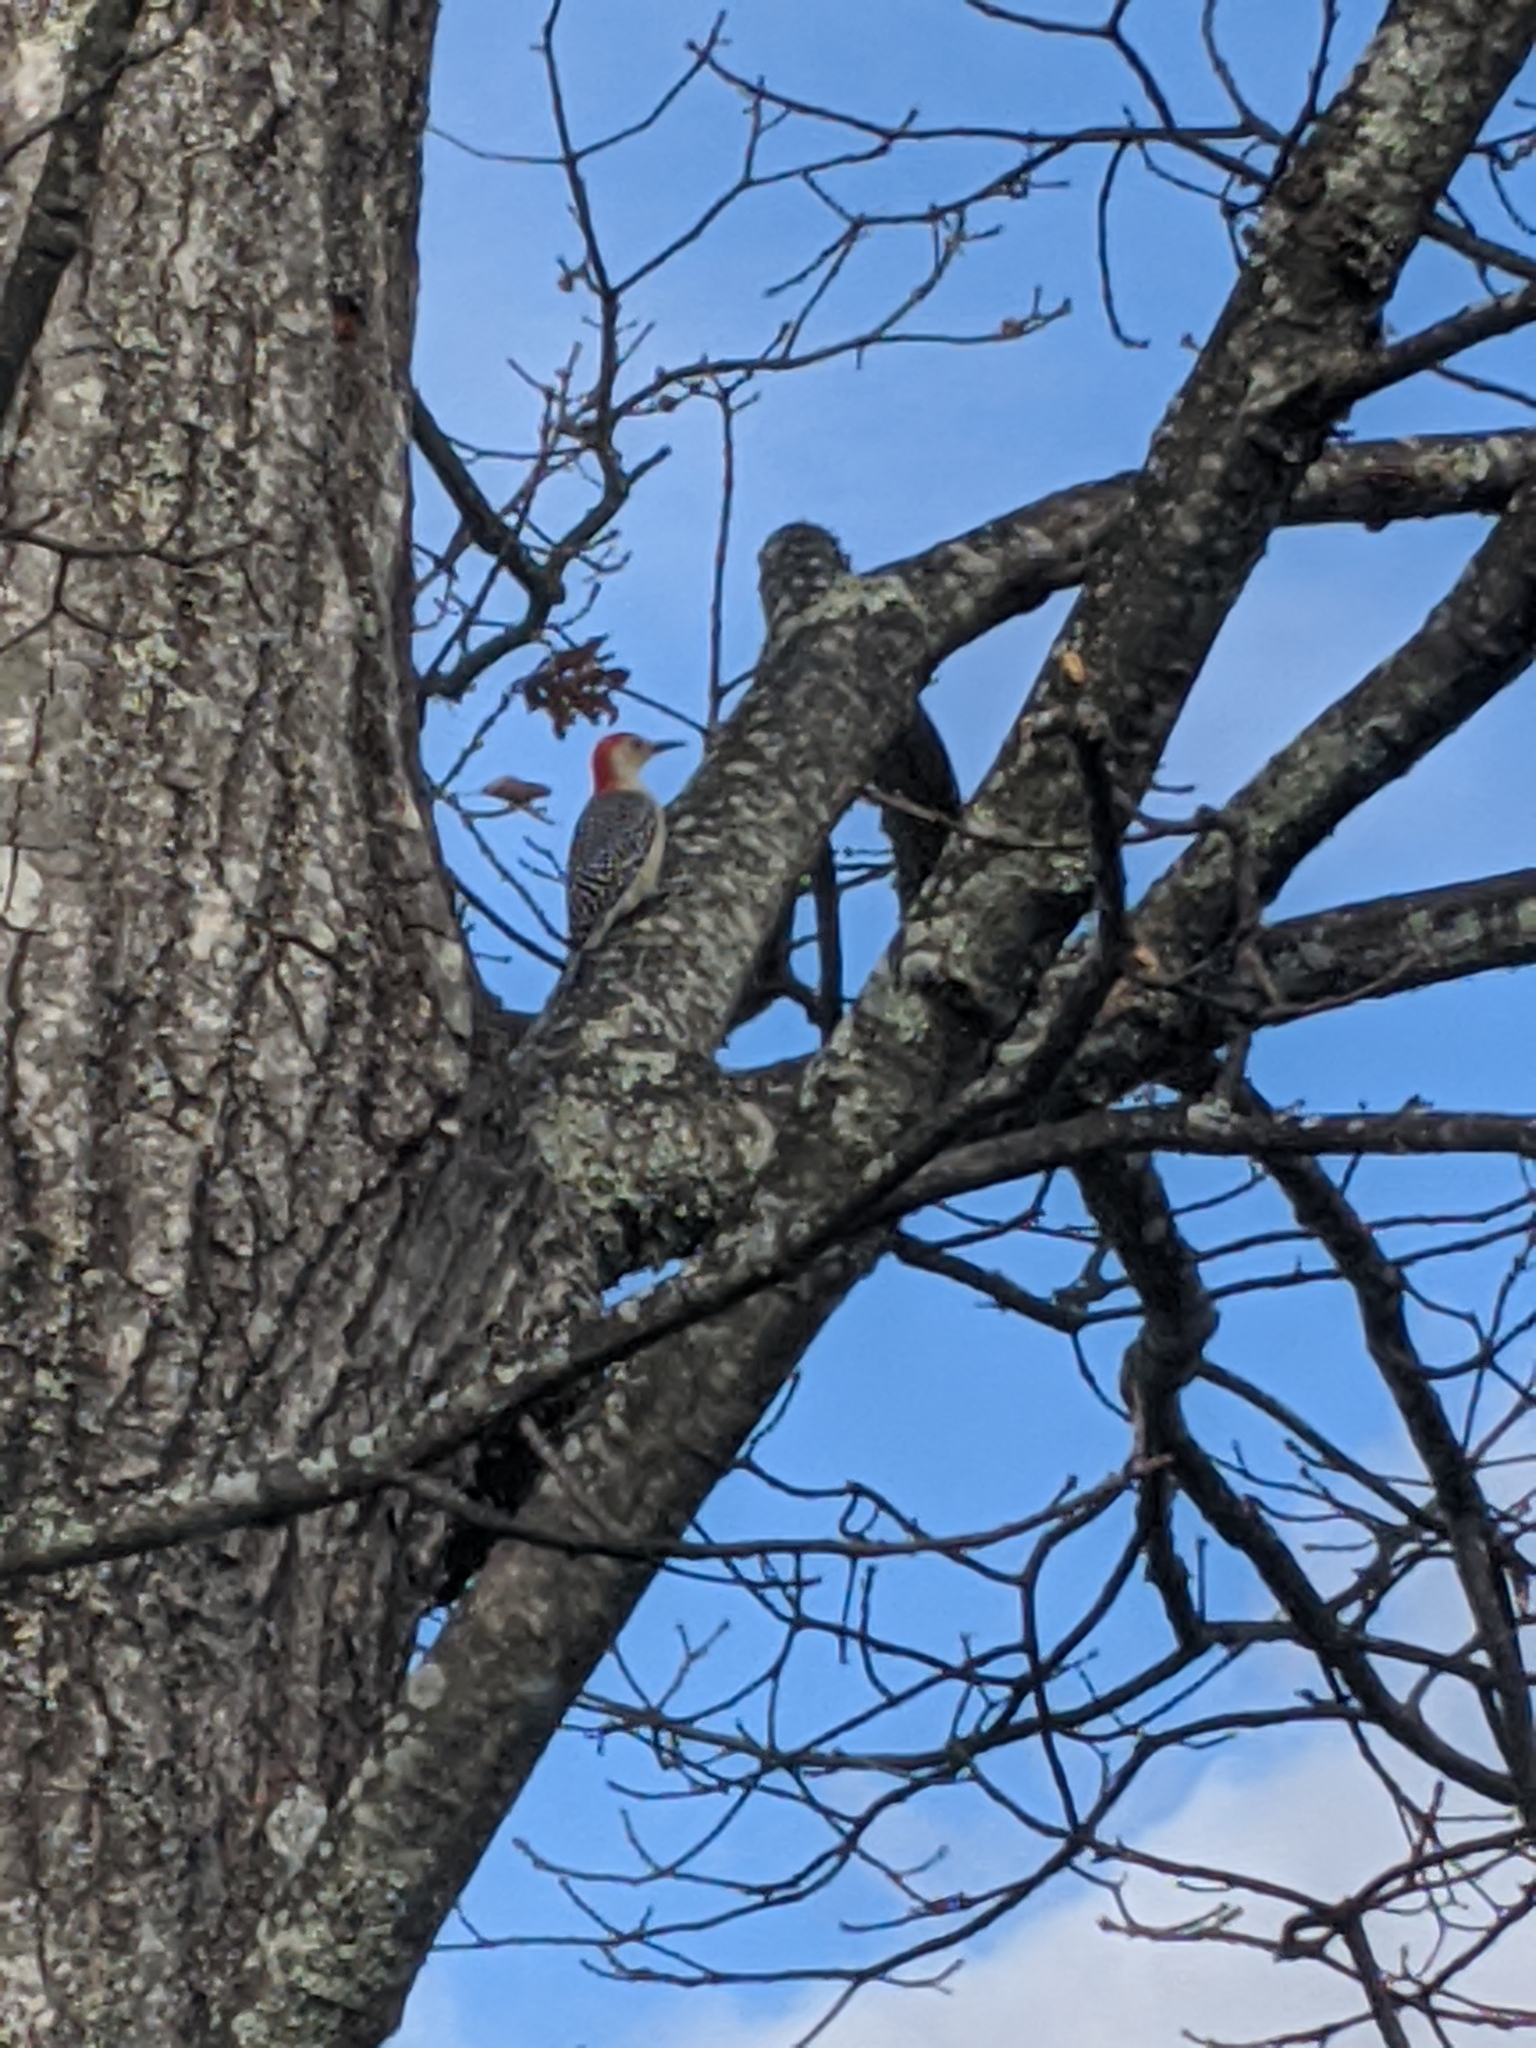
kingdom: Animalia
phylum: Chordata
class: Aves
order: Piciformes
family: Picidae
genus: Melanerpes
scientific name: Melanerpes carolinus
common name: Red-bellied woodpecker
